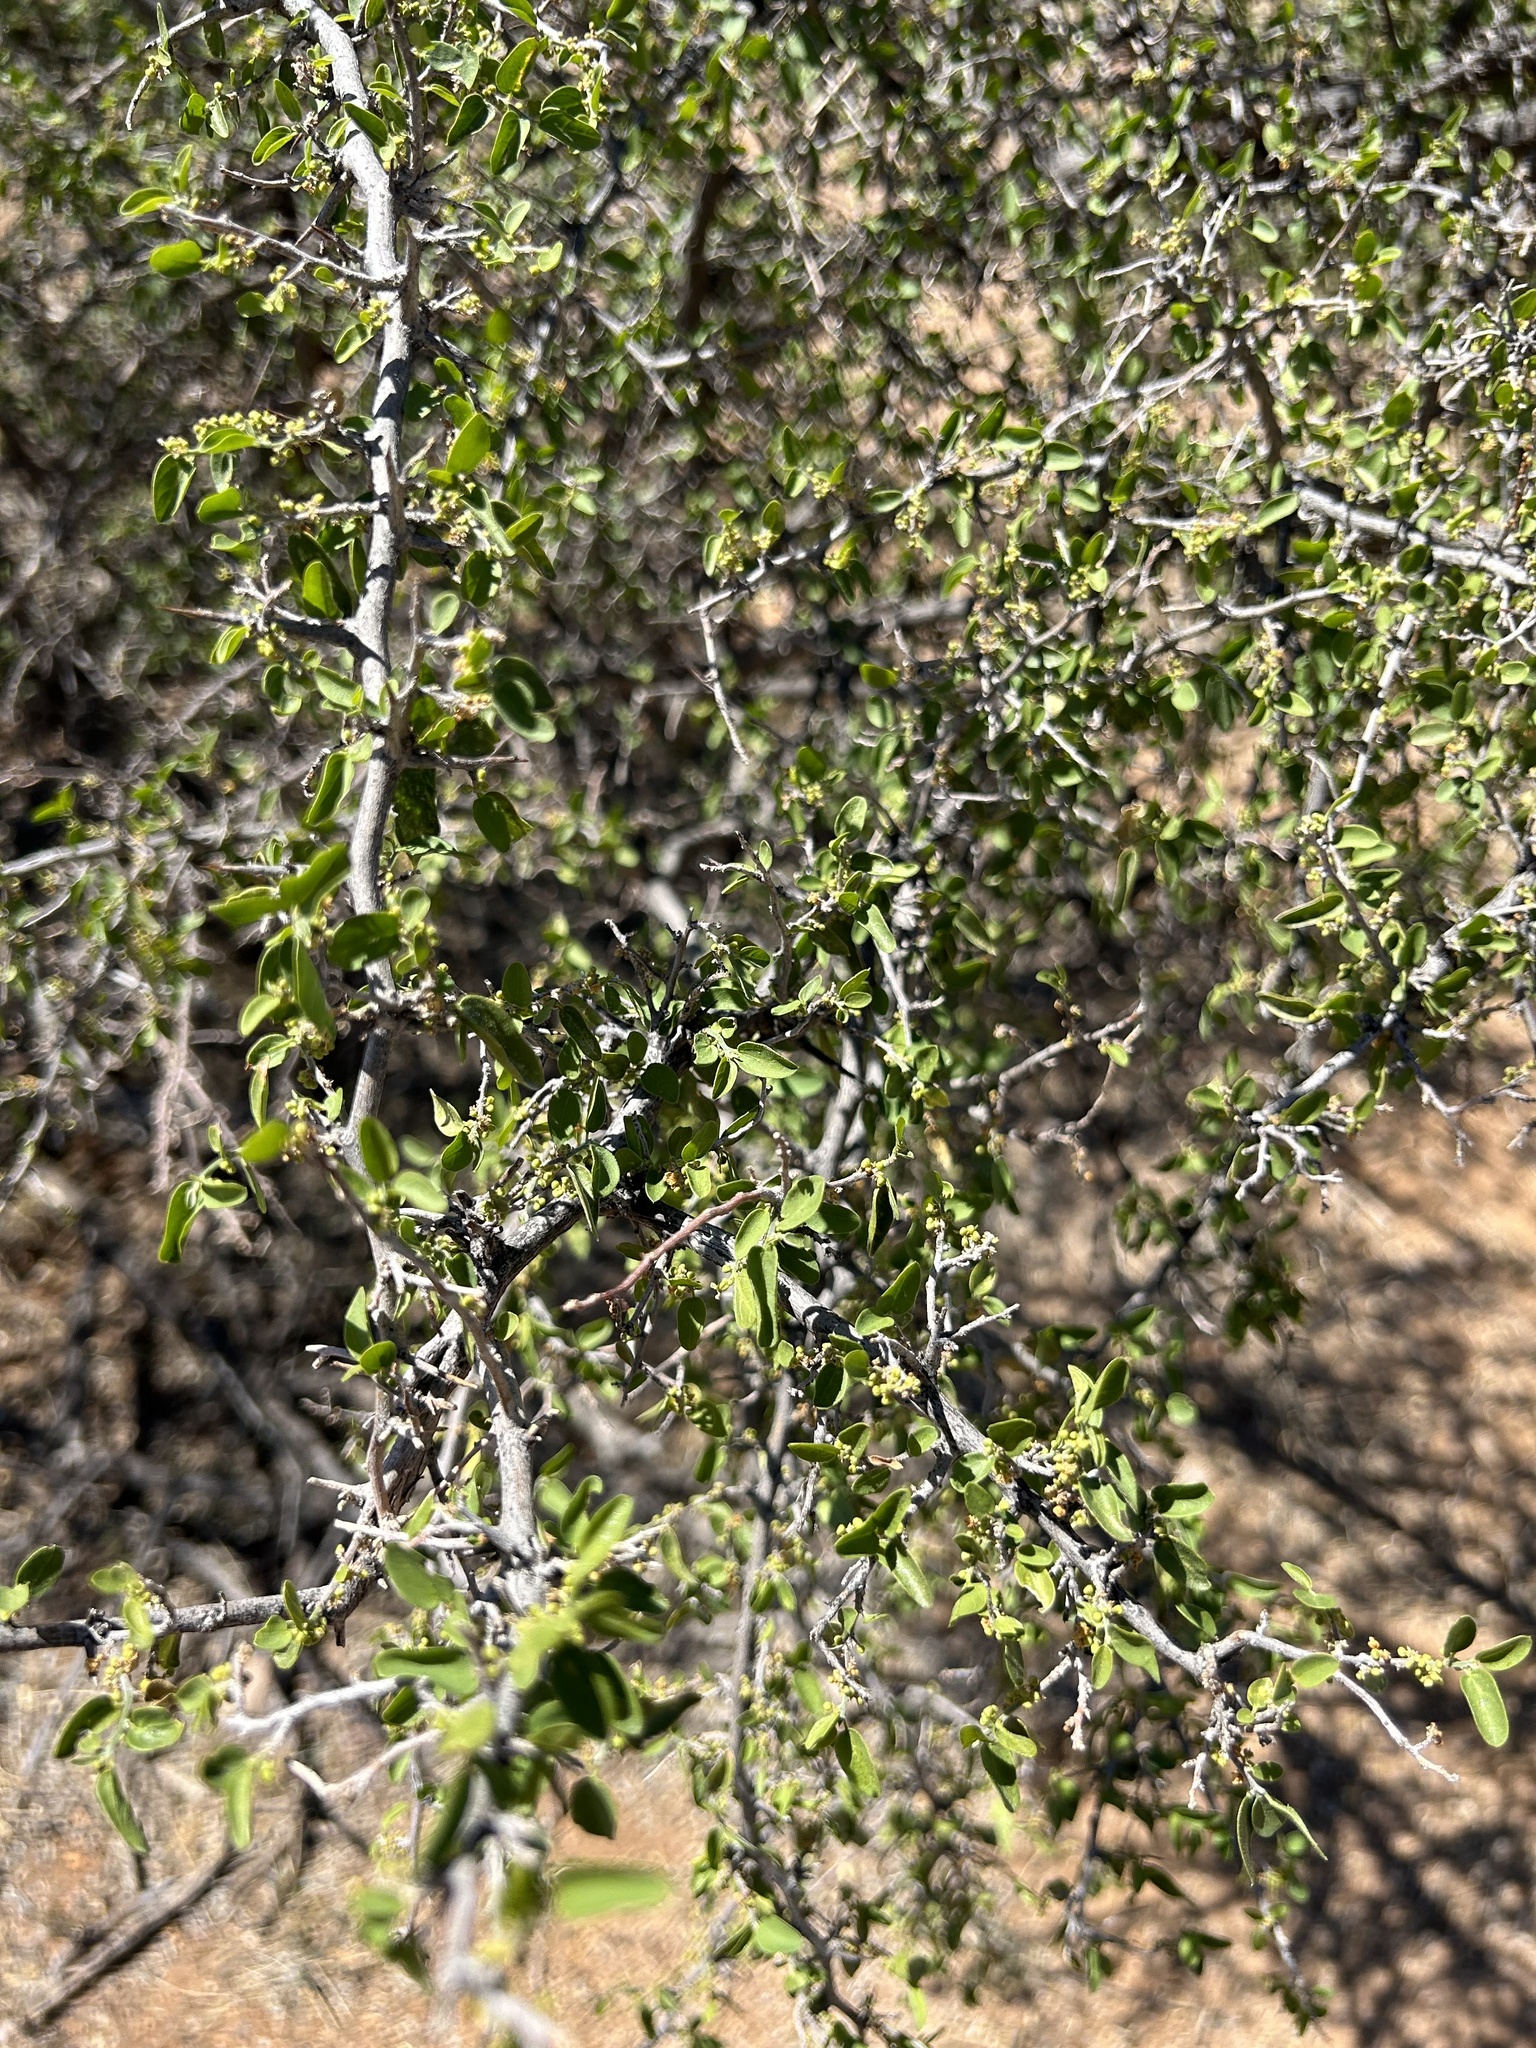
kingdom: Plantae
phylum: Tracheophyta
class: Magnoliopsida
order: Rosales
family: Cannabaceae
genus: Celtis
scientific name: Celtis pallida
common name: Desert hackberry
